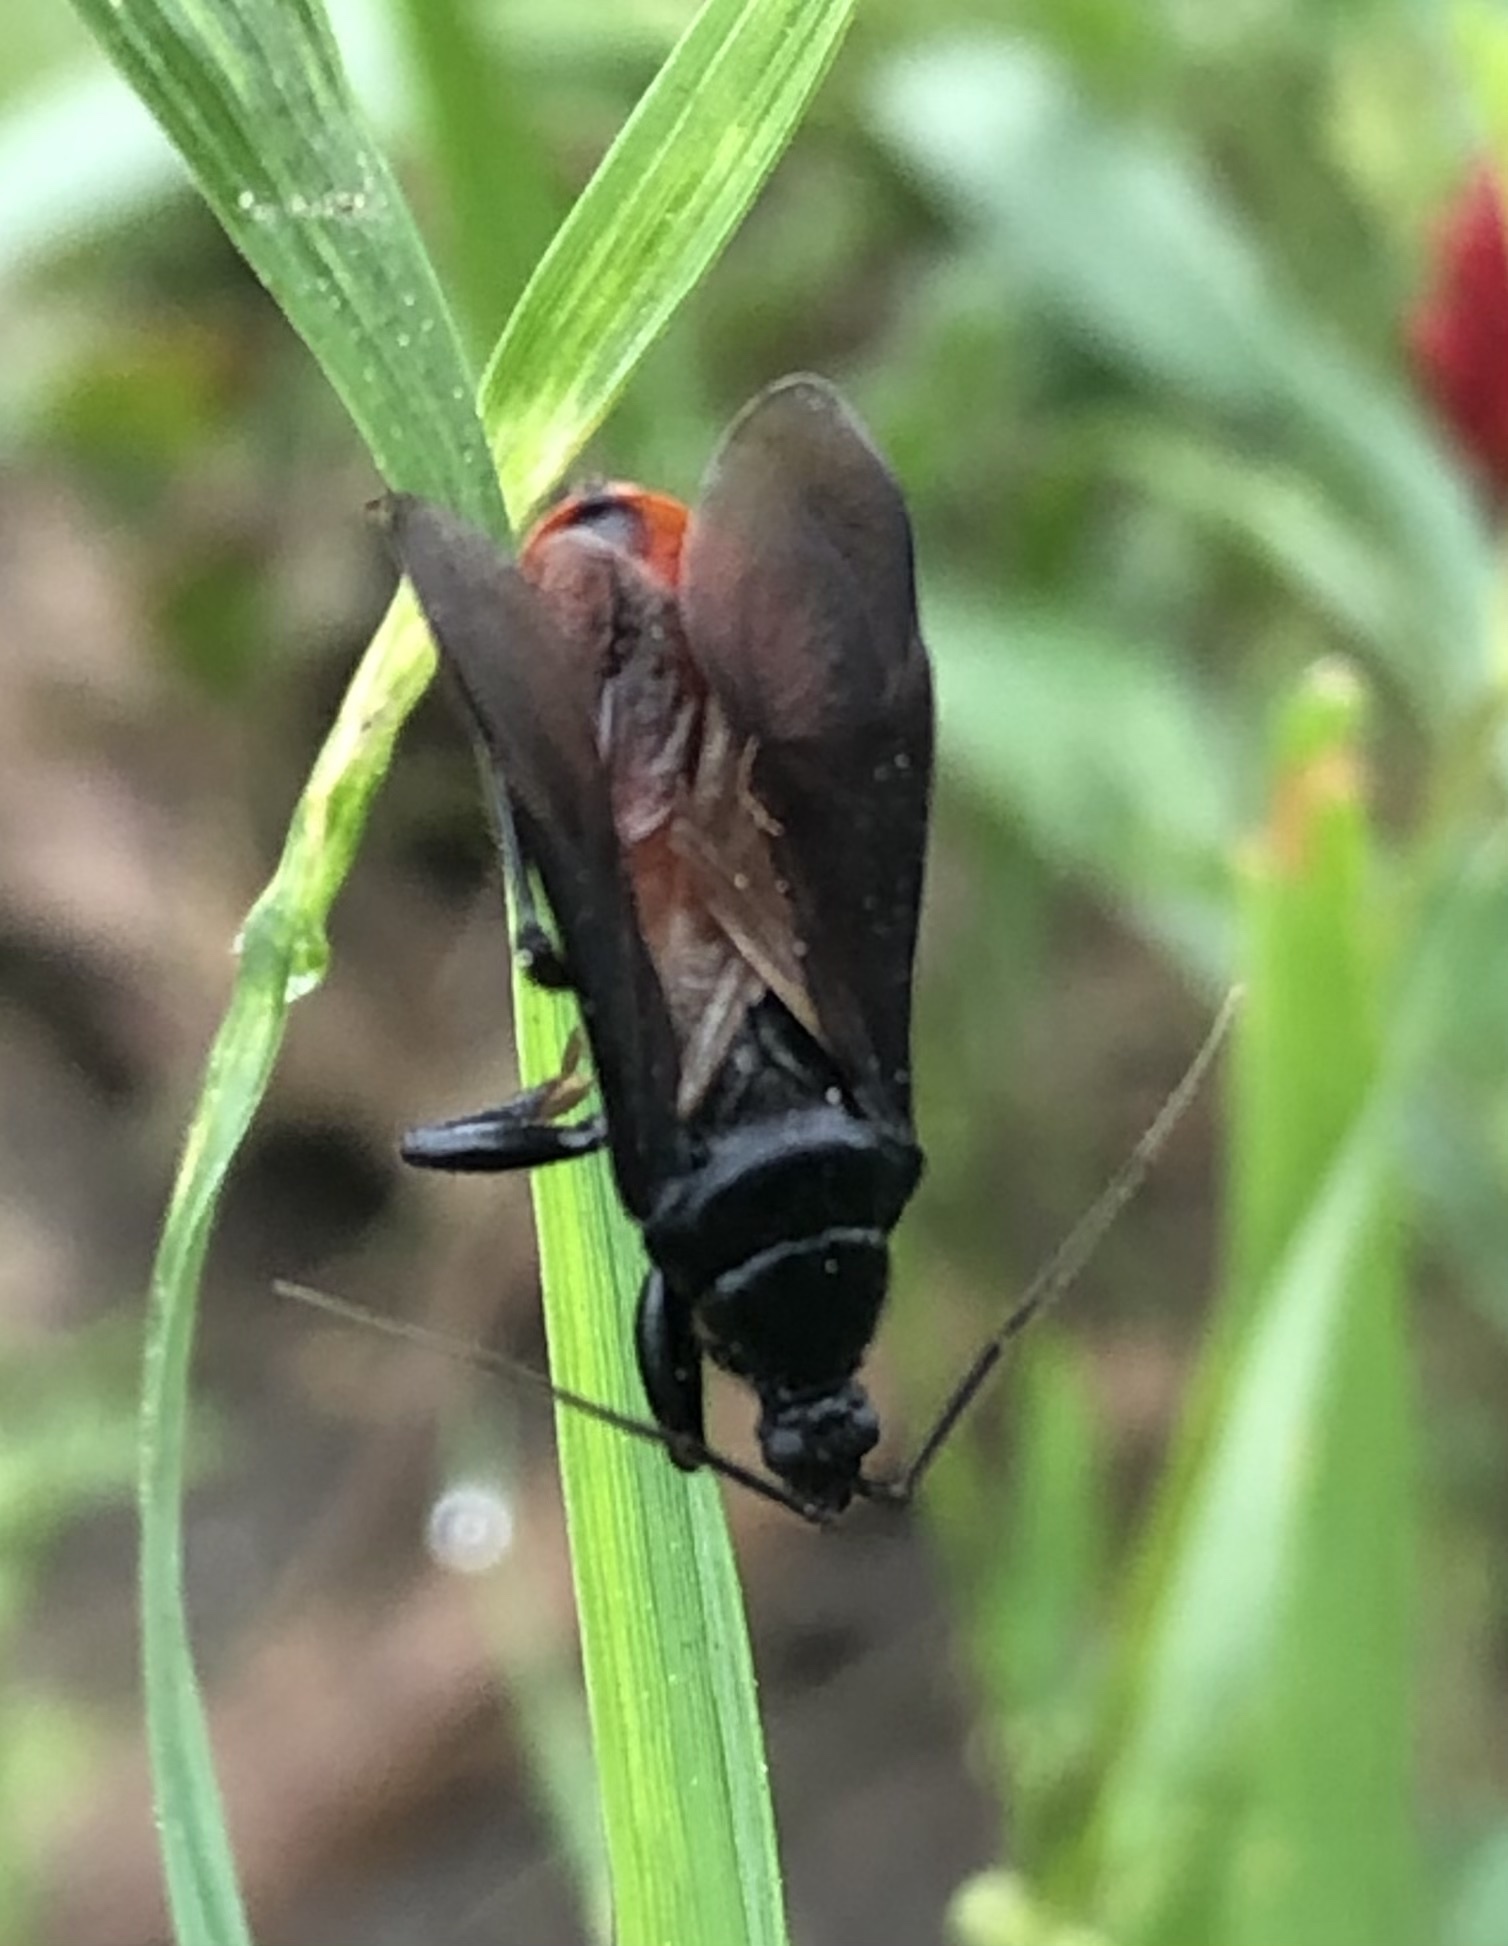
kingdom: Animalia
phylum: Arthropoda
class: Insecta
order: Hemiptera
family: Reduviidae
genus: Melanolestes
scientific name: Melanolestes picipes
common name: Assassin bug
